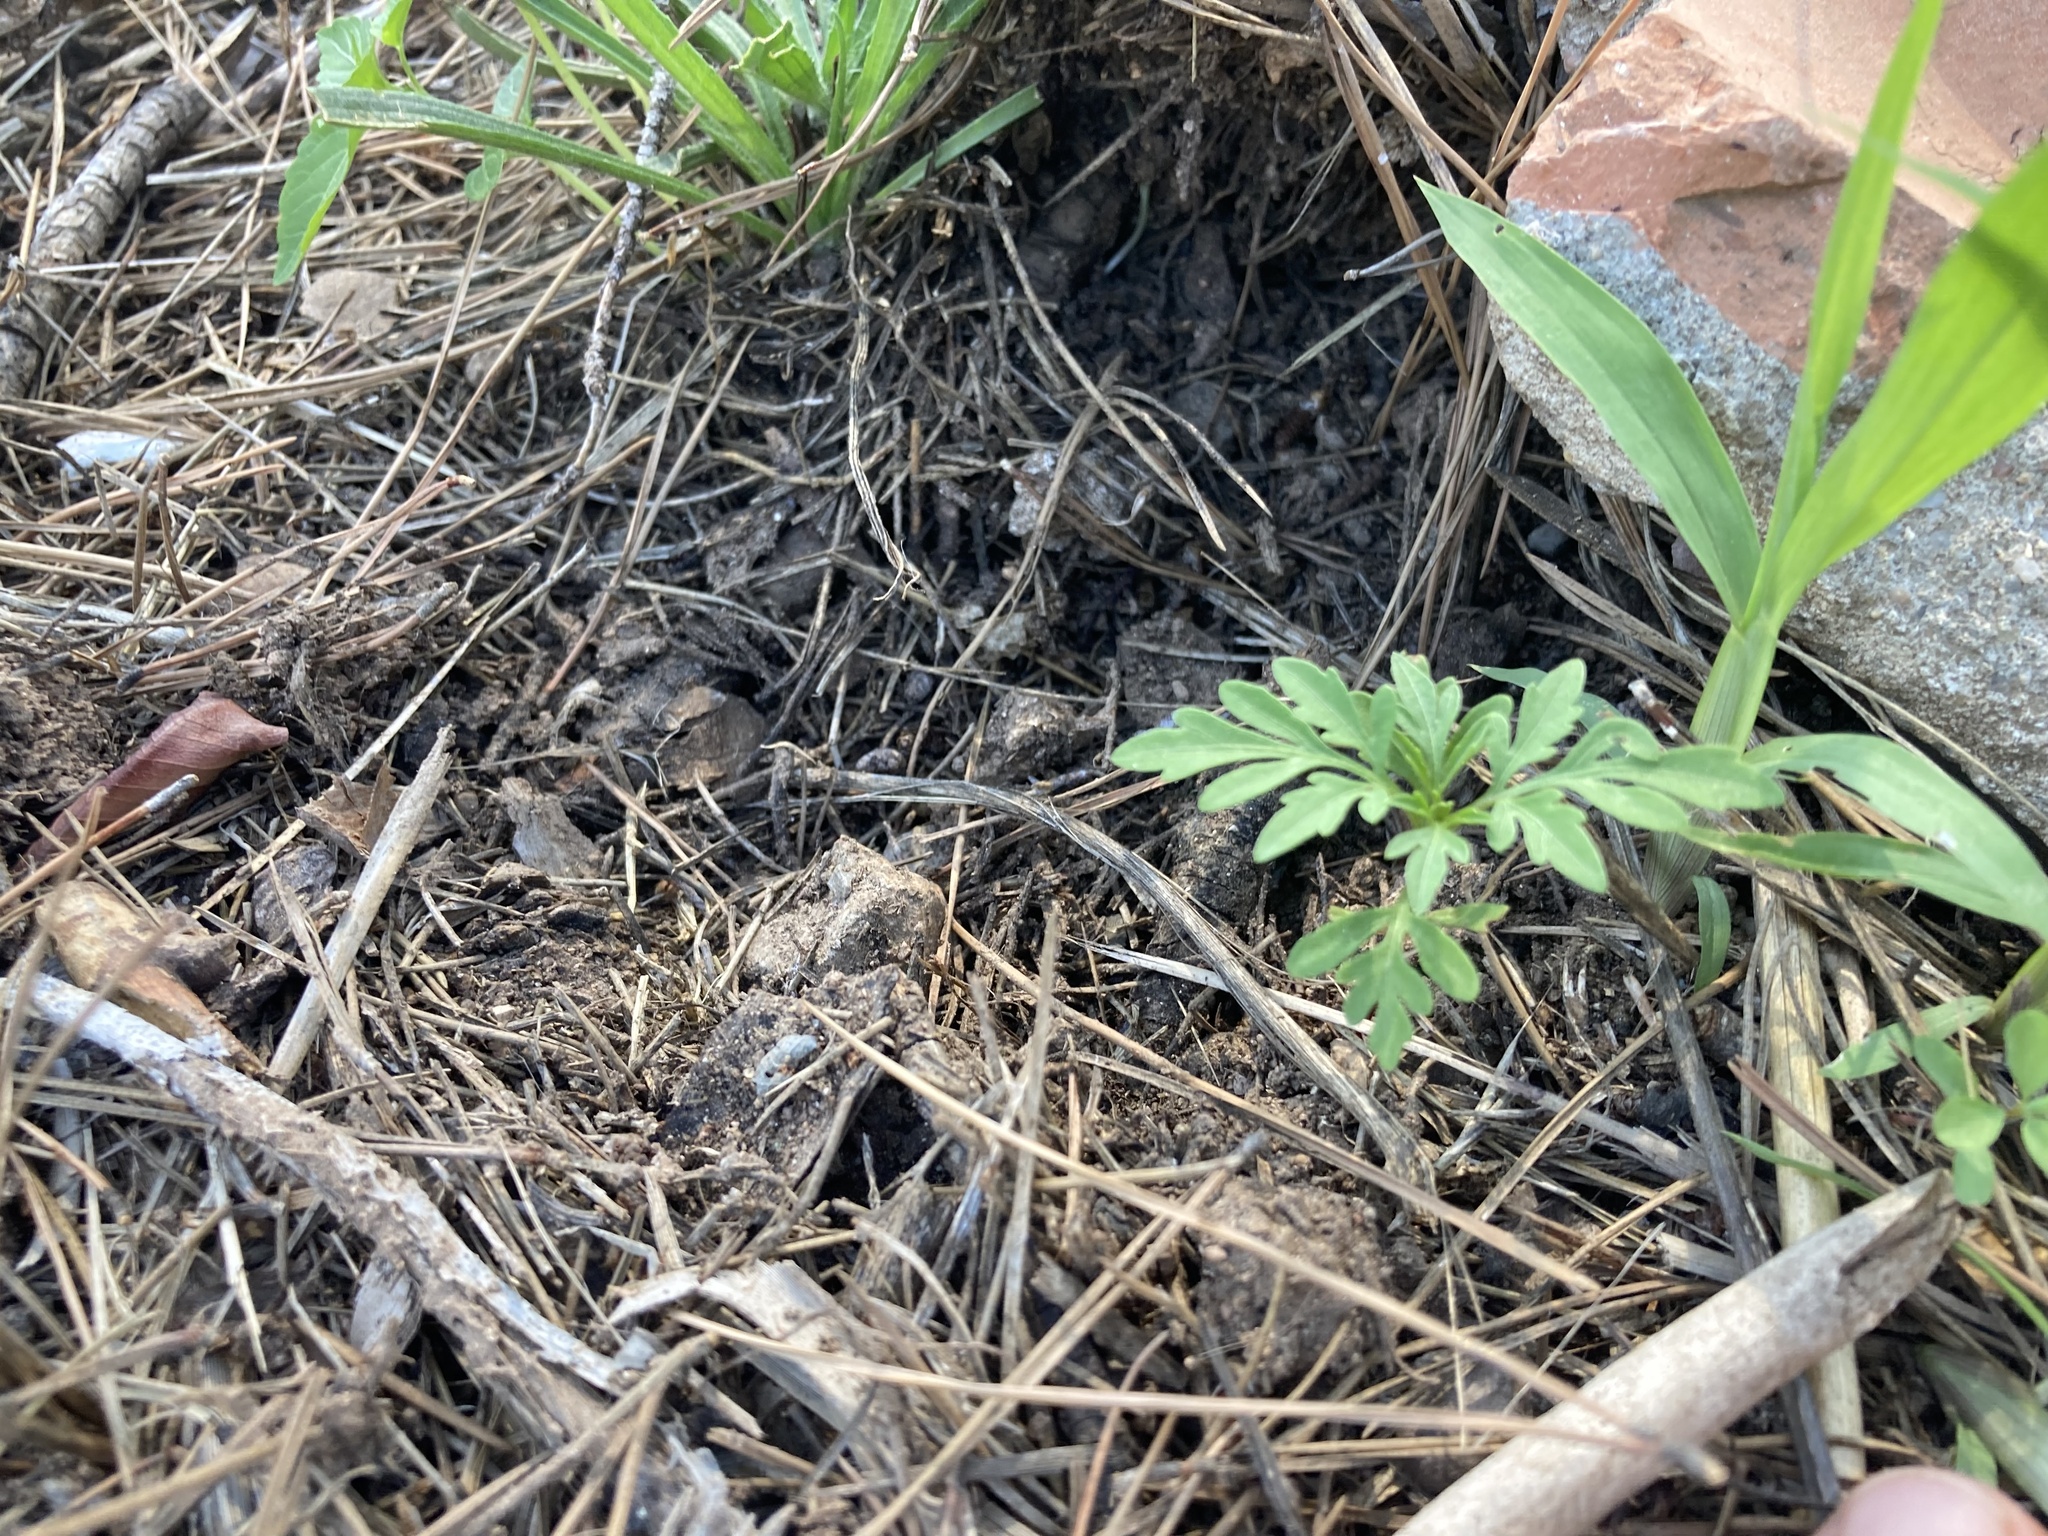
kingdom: Plantae
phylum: Tracheophyta
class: Magnoliopsida
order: Asterales
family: Asteraceae
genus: Bidens
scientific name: Bidens subalternans
